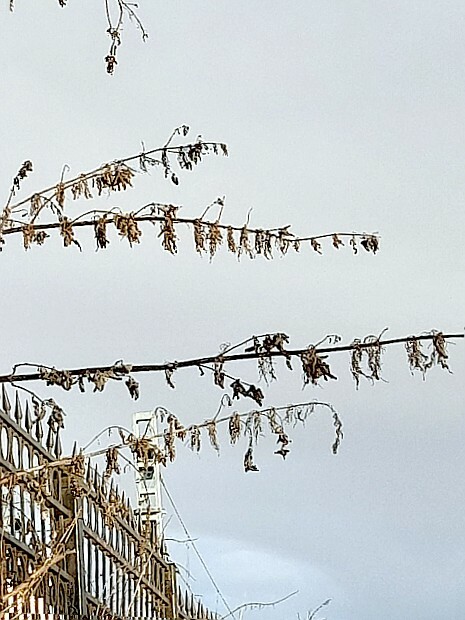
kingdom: Plantae
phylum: Tracheophyta
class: Magnoliopsida
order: Rosales
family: Urticaceae
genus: Urtica
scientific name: Urtica dioica
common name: Common nettle
